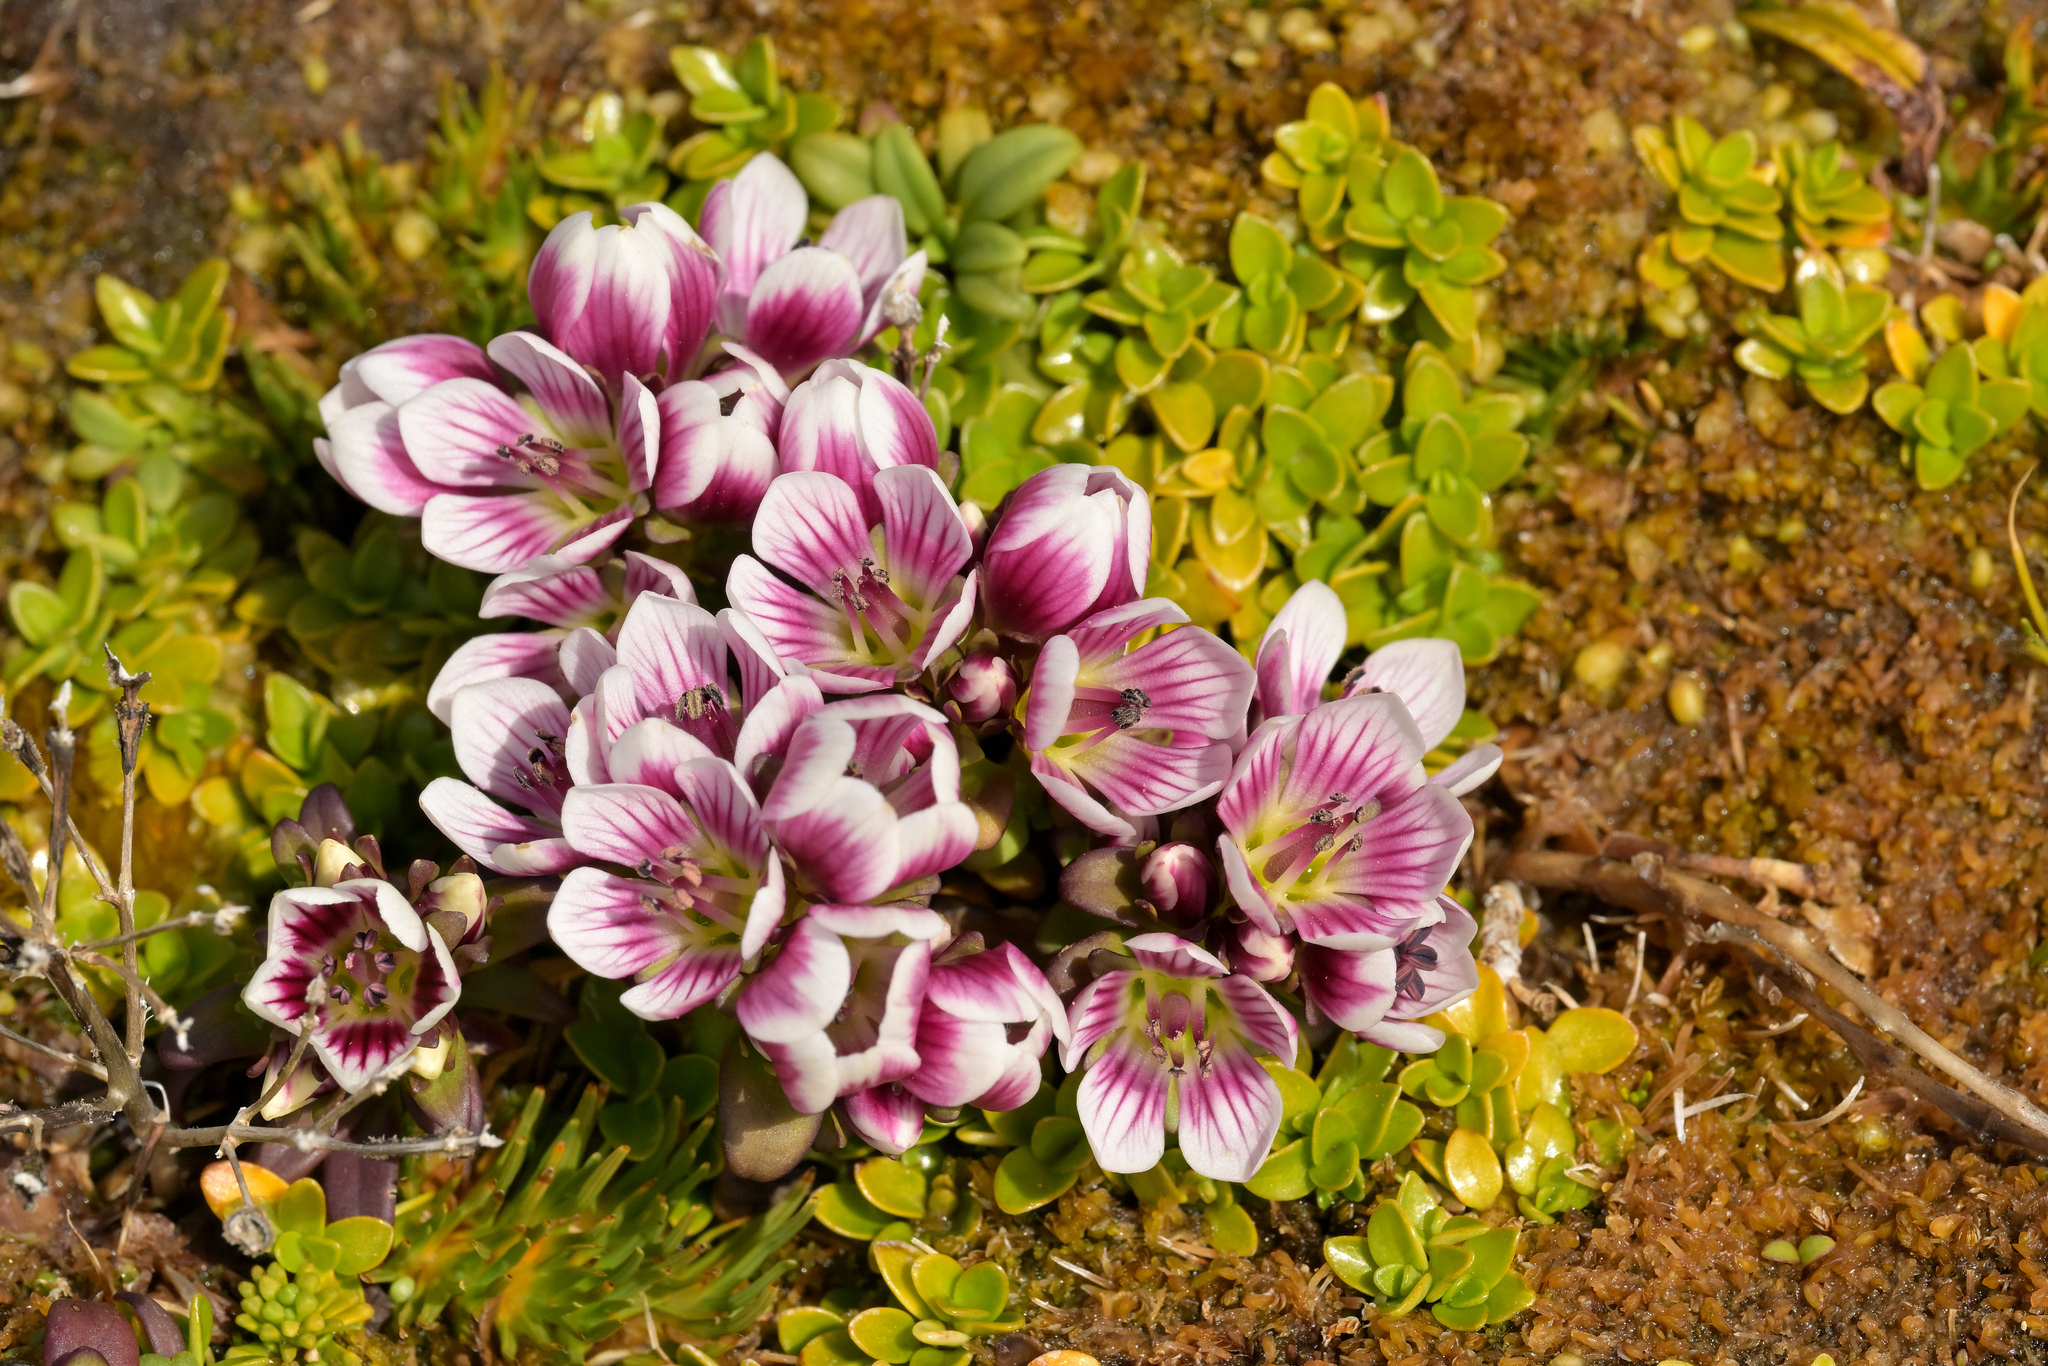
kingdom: Plantae
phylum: Tracheophyta
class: Magnoliopsida
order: Gentianales
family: Gentianaceae
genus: Gentianella
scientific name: Gentianella concinna
